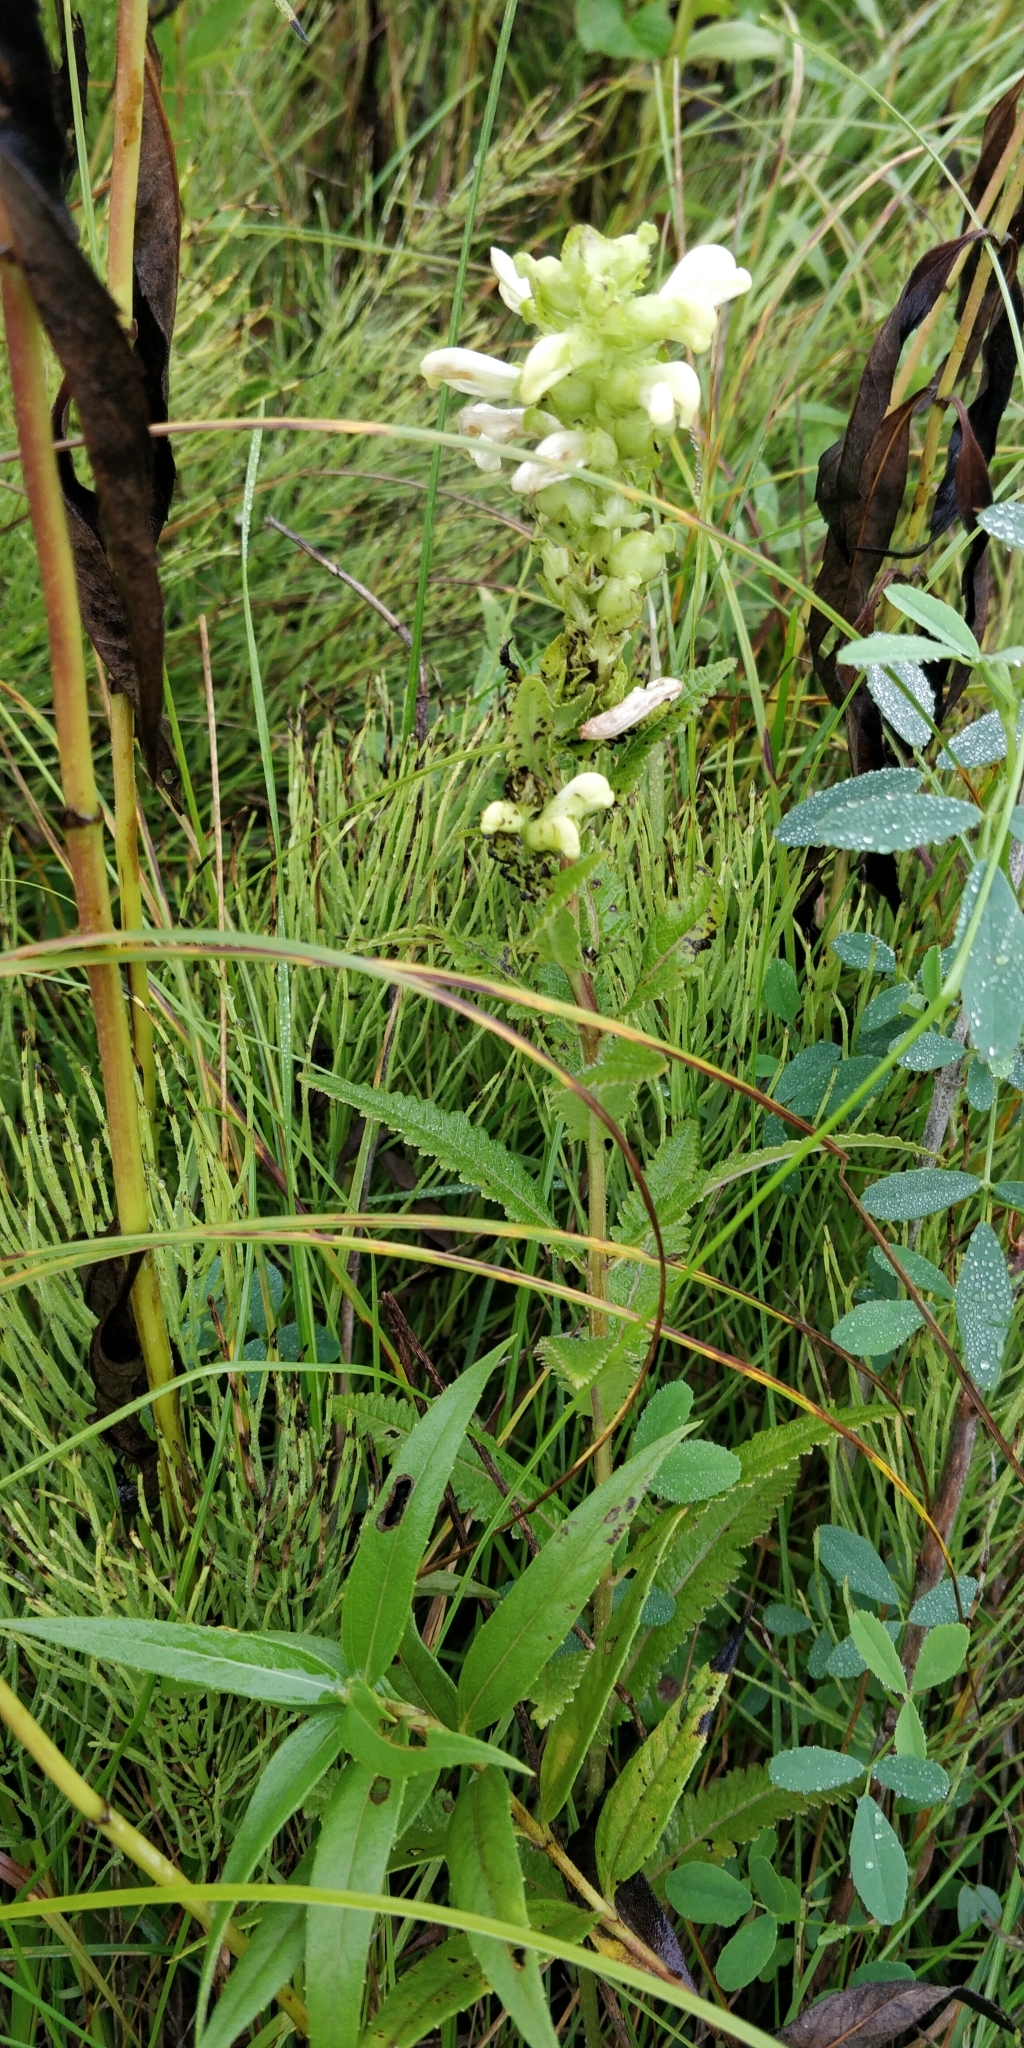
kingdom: Plantae
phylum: Tracheophyta
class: Magnoliopsida
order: Lamiales
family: Orobanchaceae
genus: Pedicularis
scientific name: Pedicularis lanceolata
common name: Swamp lousewort
